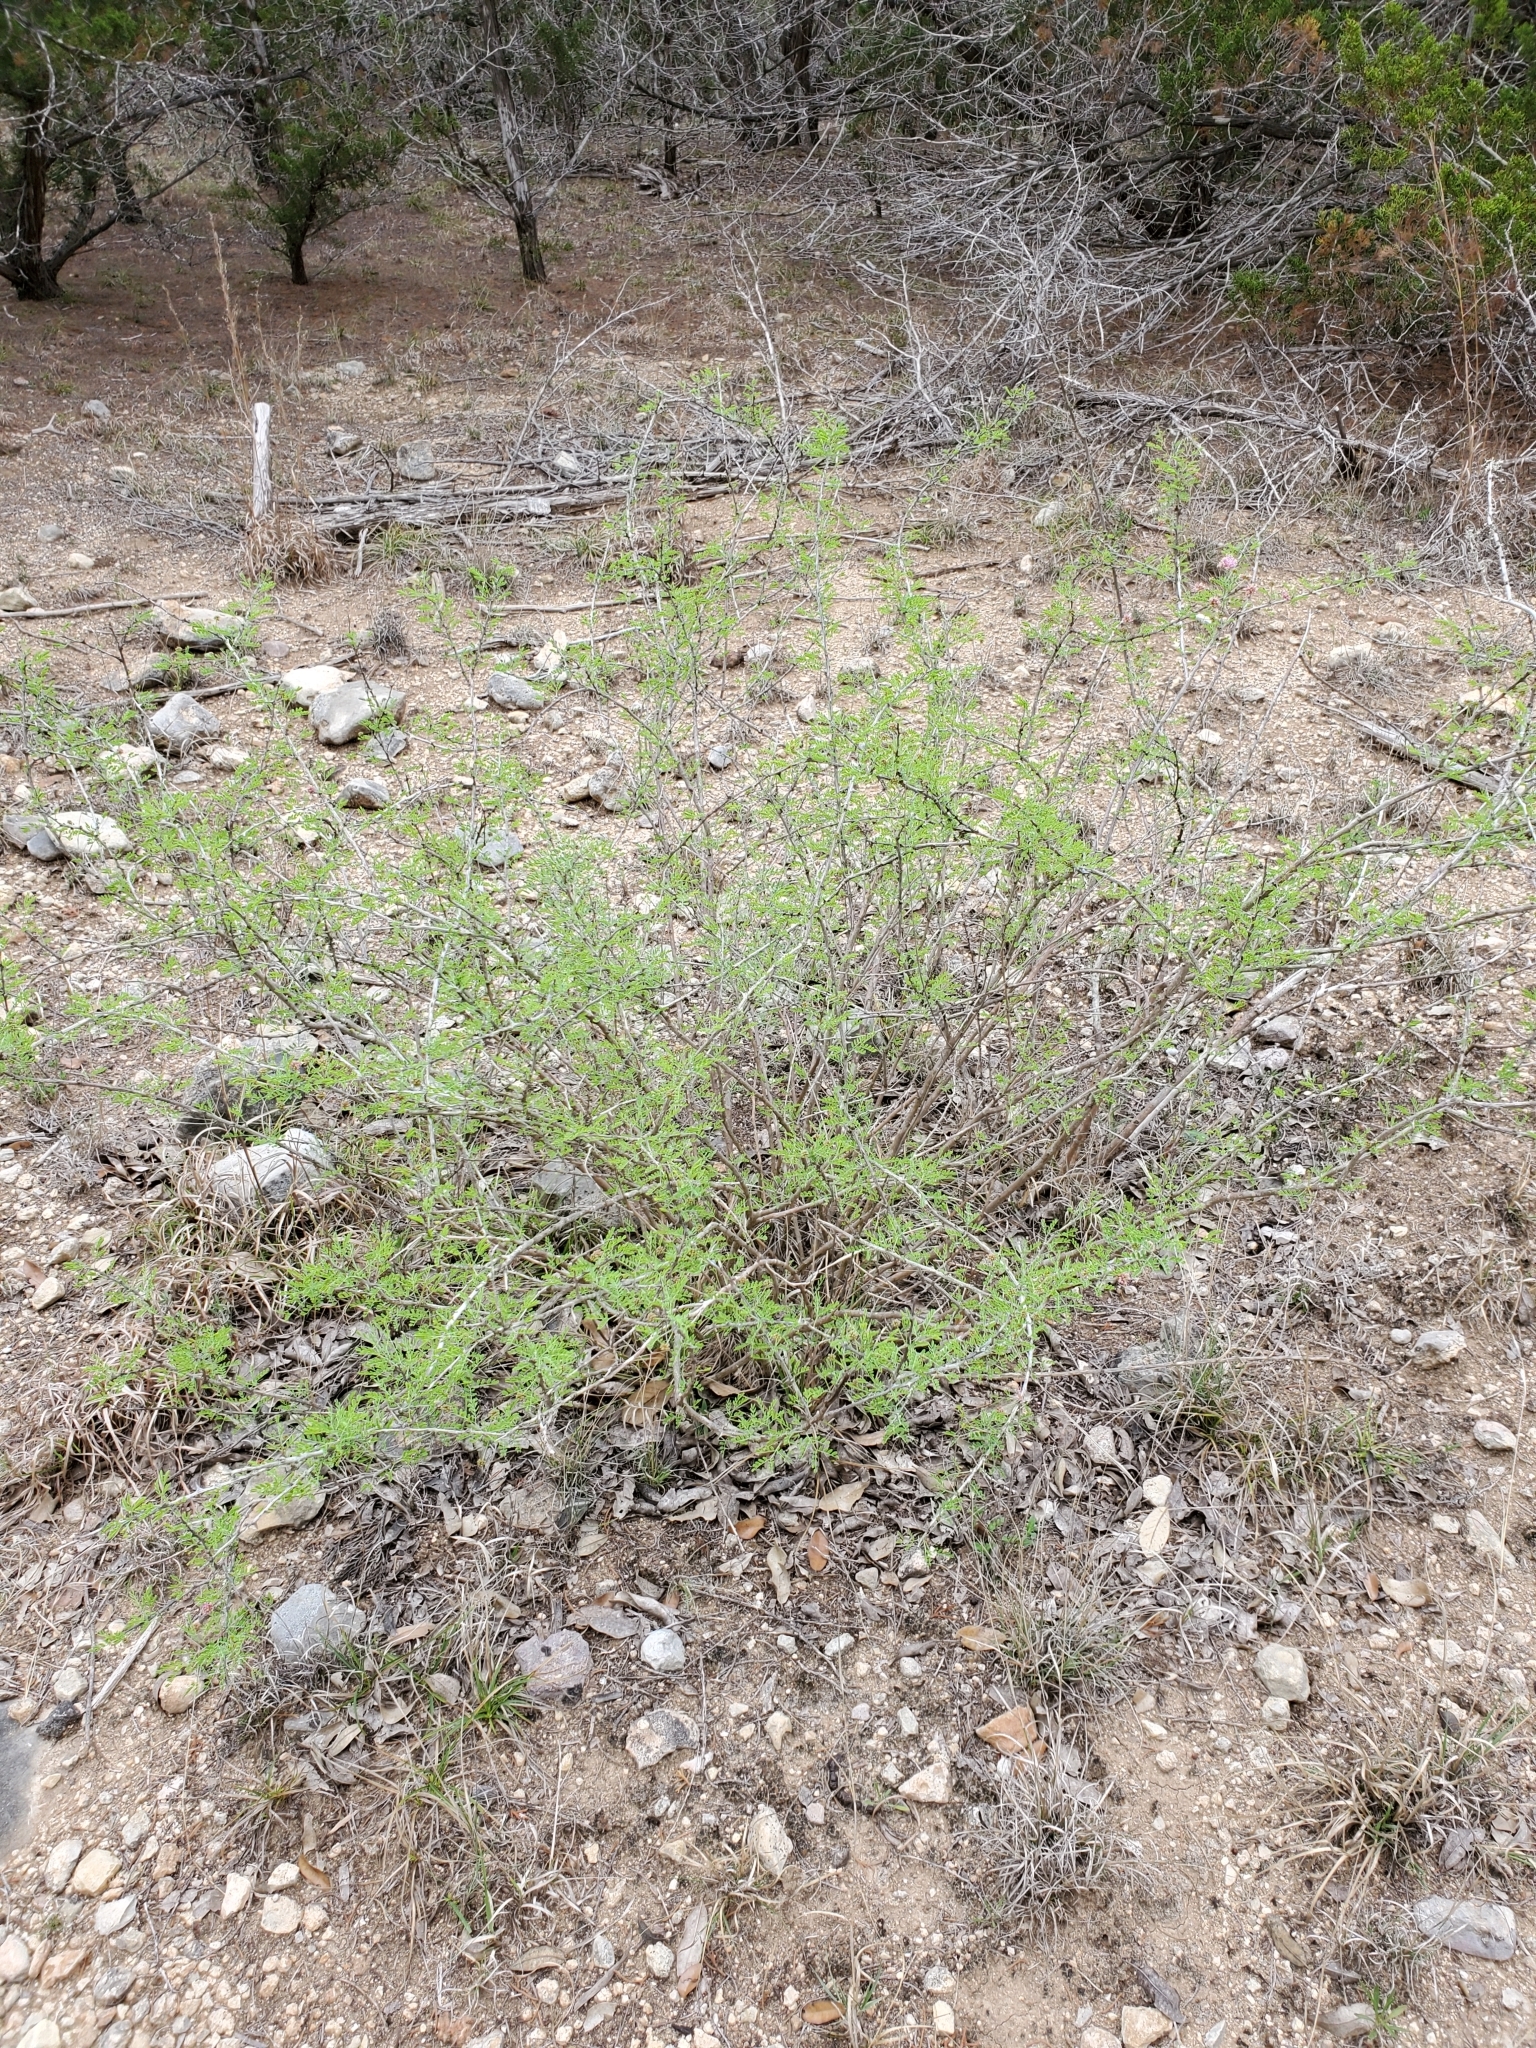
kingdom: Plantae
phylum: Tracheophyta
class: Magnoliopsida
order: Fabales
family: Fabaceae
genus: Mimosa
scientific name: Mimosa borealis
